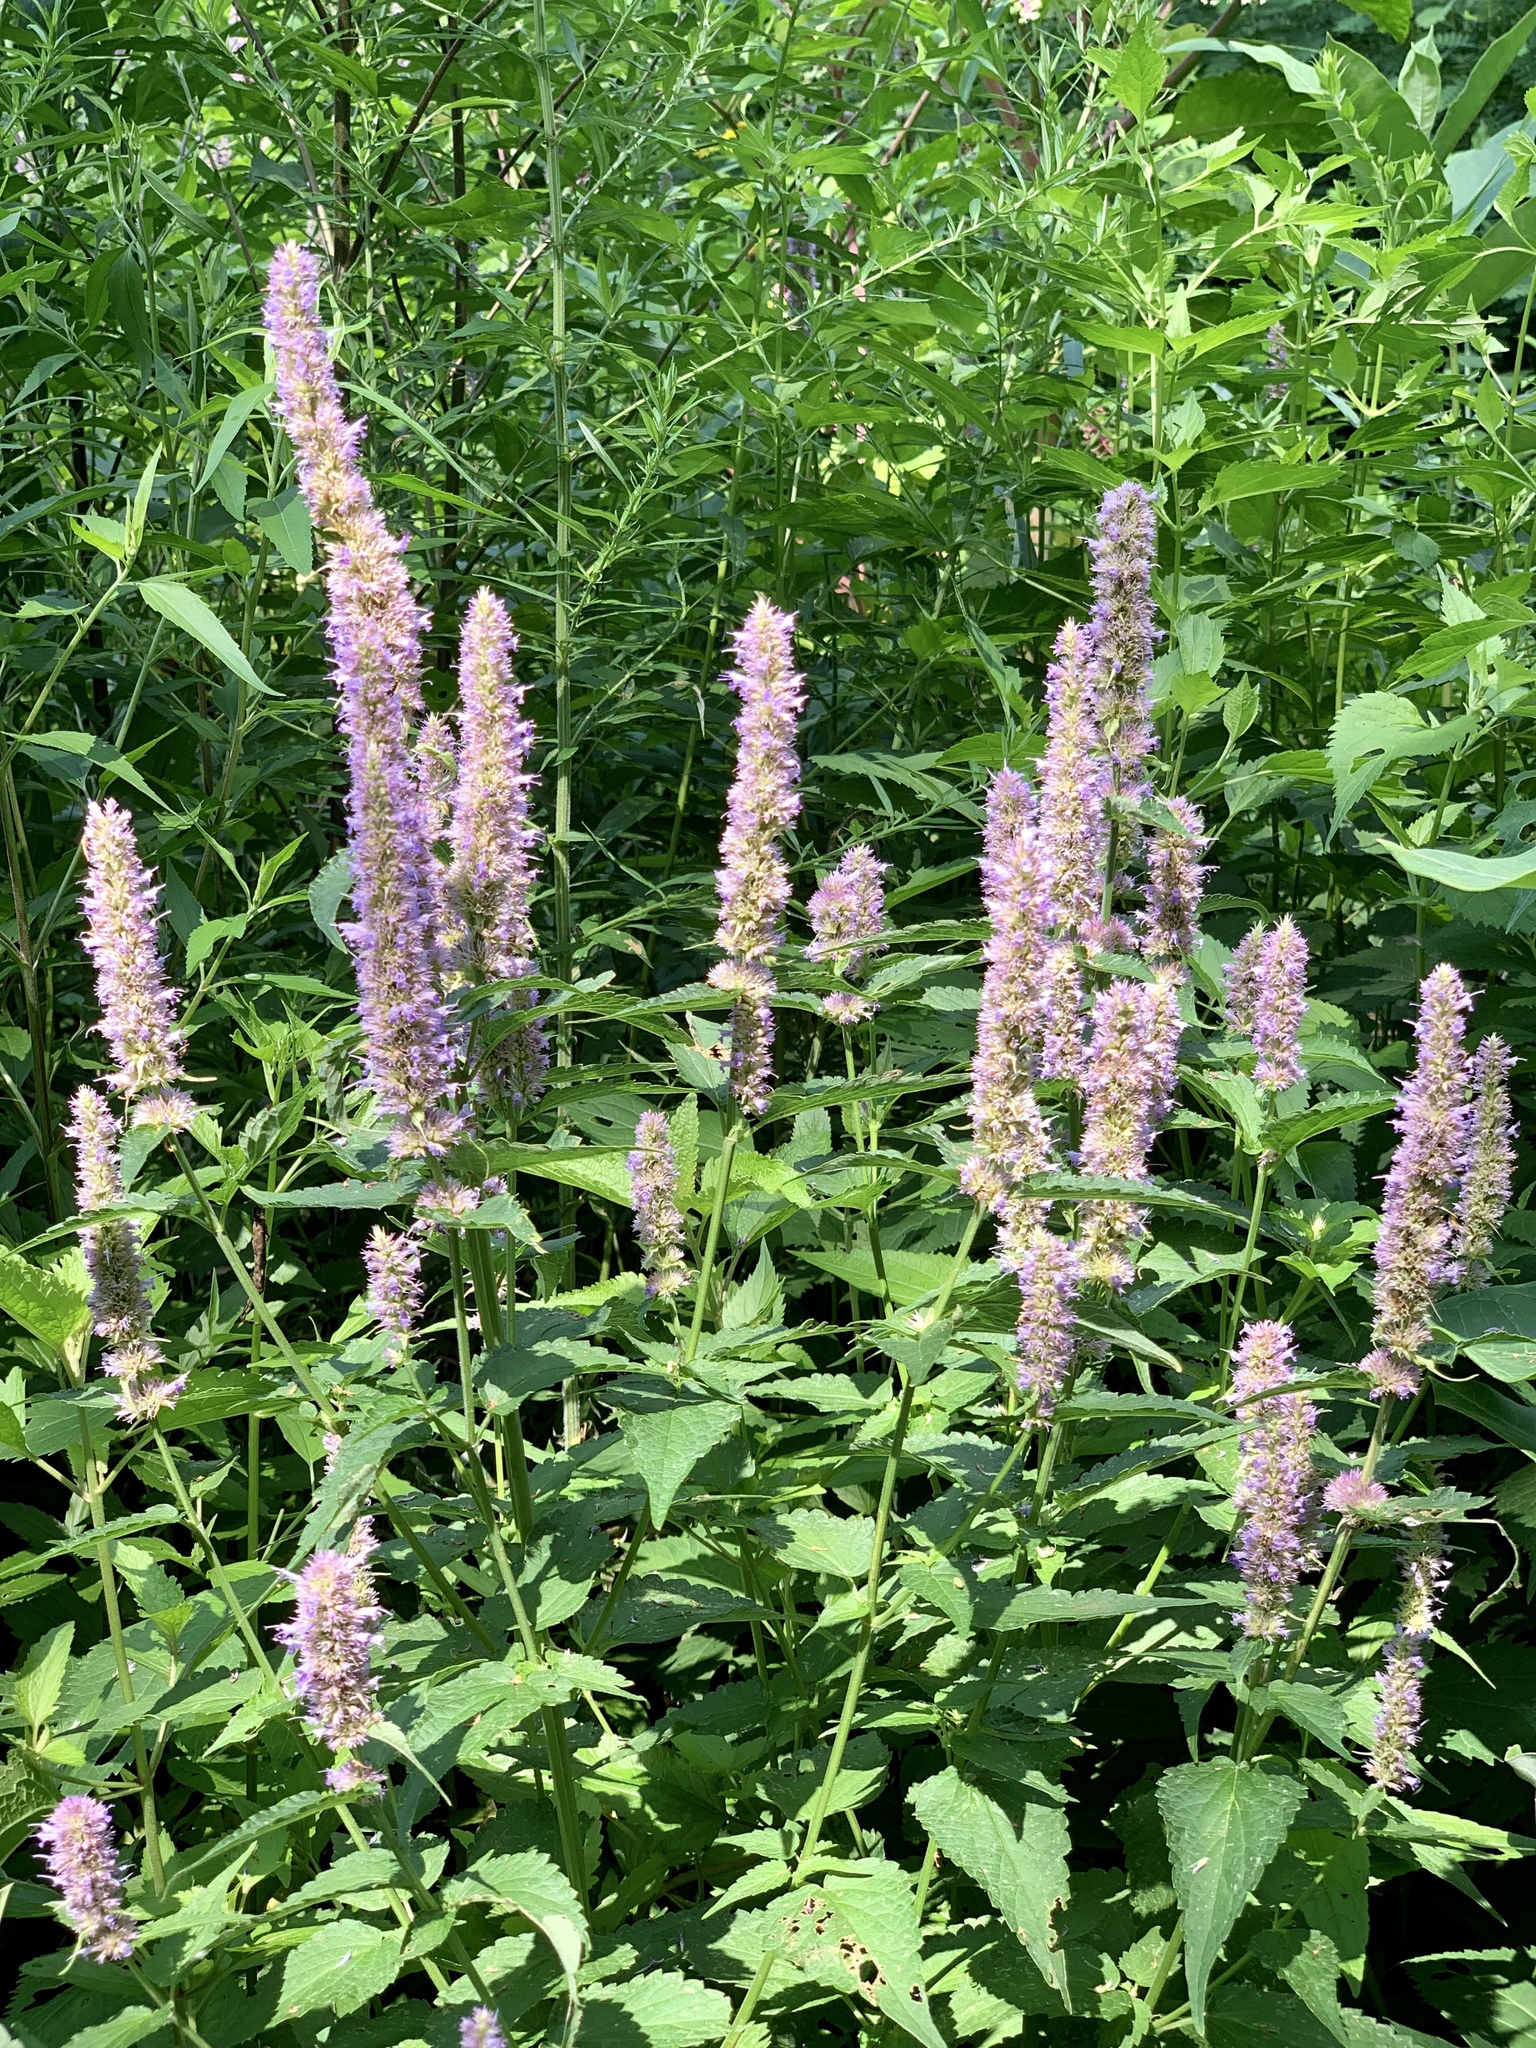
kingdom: Plantae
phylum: Tracheophyta
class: Magnoliopsida
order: Lamiales
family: Lamiaceae
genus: Agastache
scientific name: Agastache foeniculum
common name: Anise hyssop
